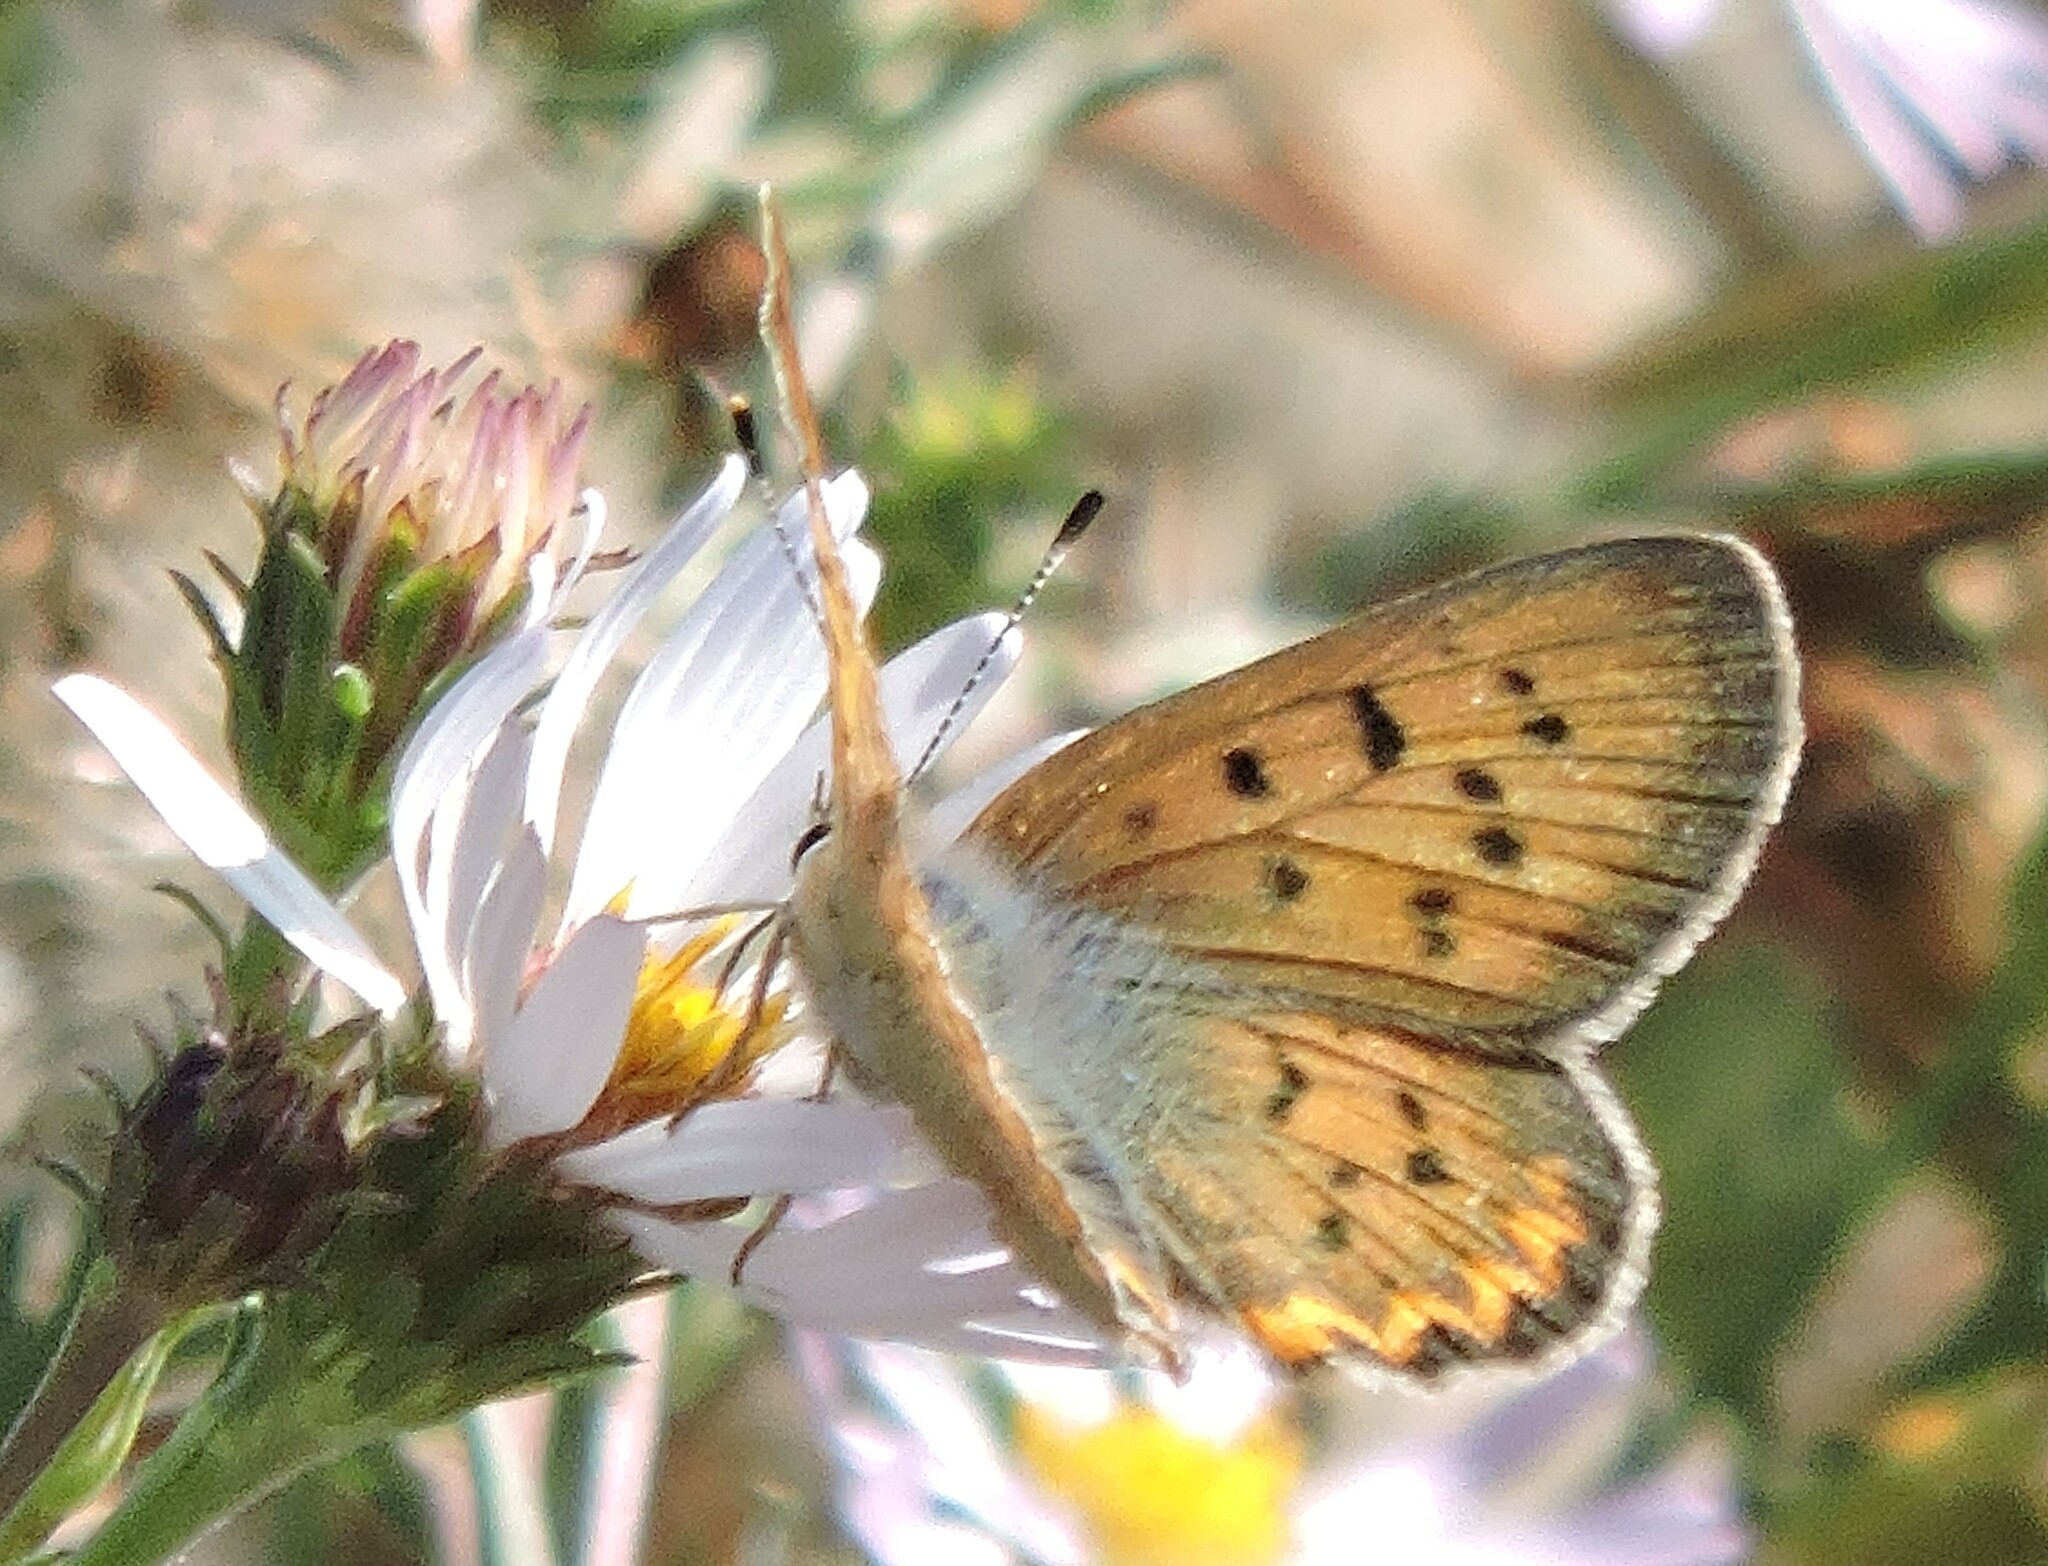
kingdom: Animalia
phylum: Arthropoda
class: Insecta
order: Lepidoptera
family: Lycaenidae
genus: Tharsalea
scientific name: Tharsalea helloides
